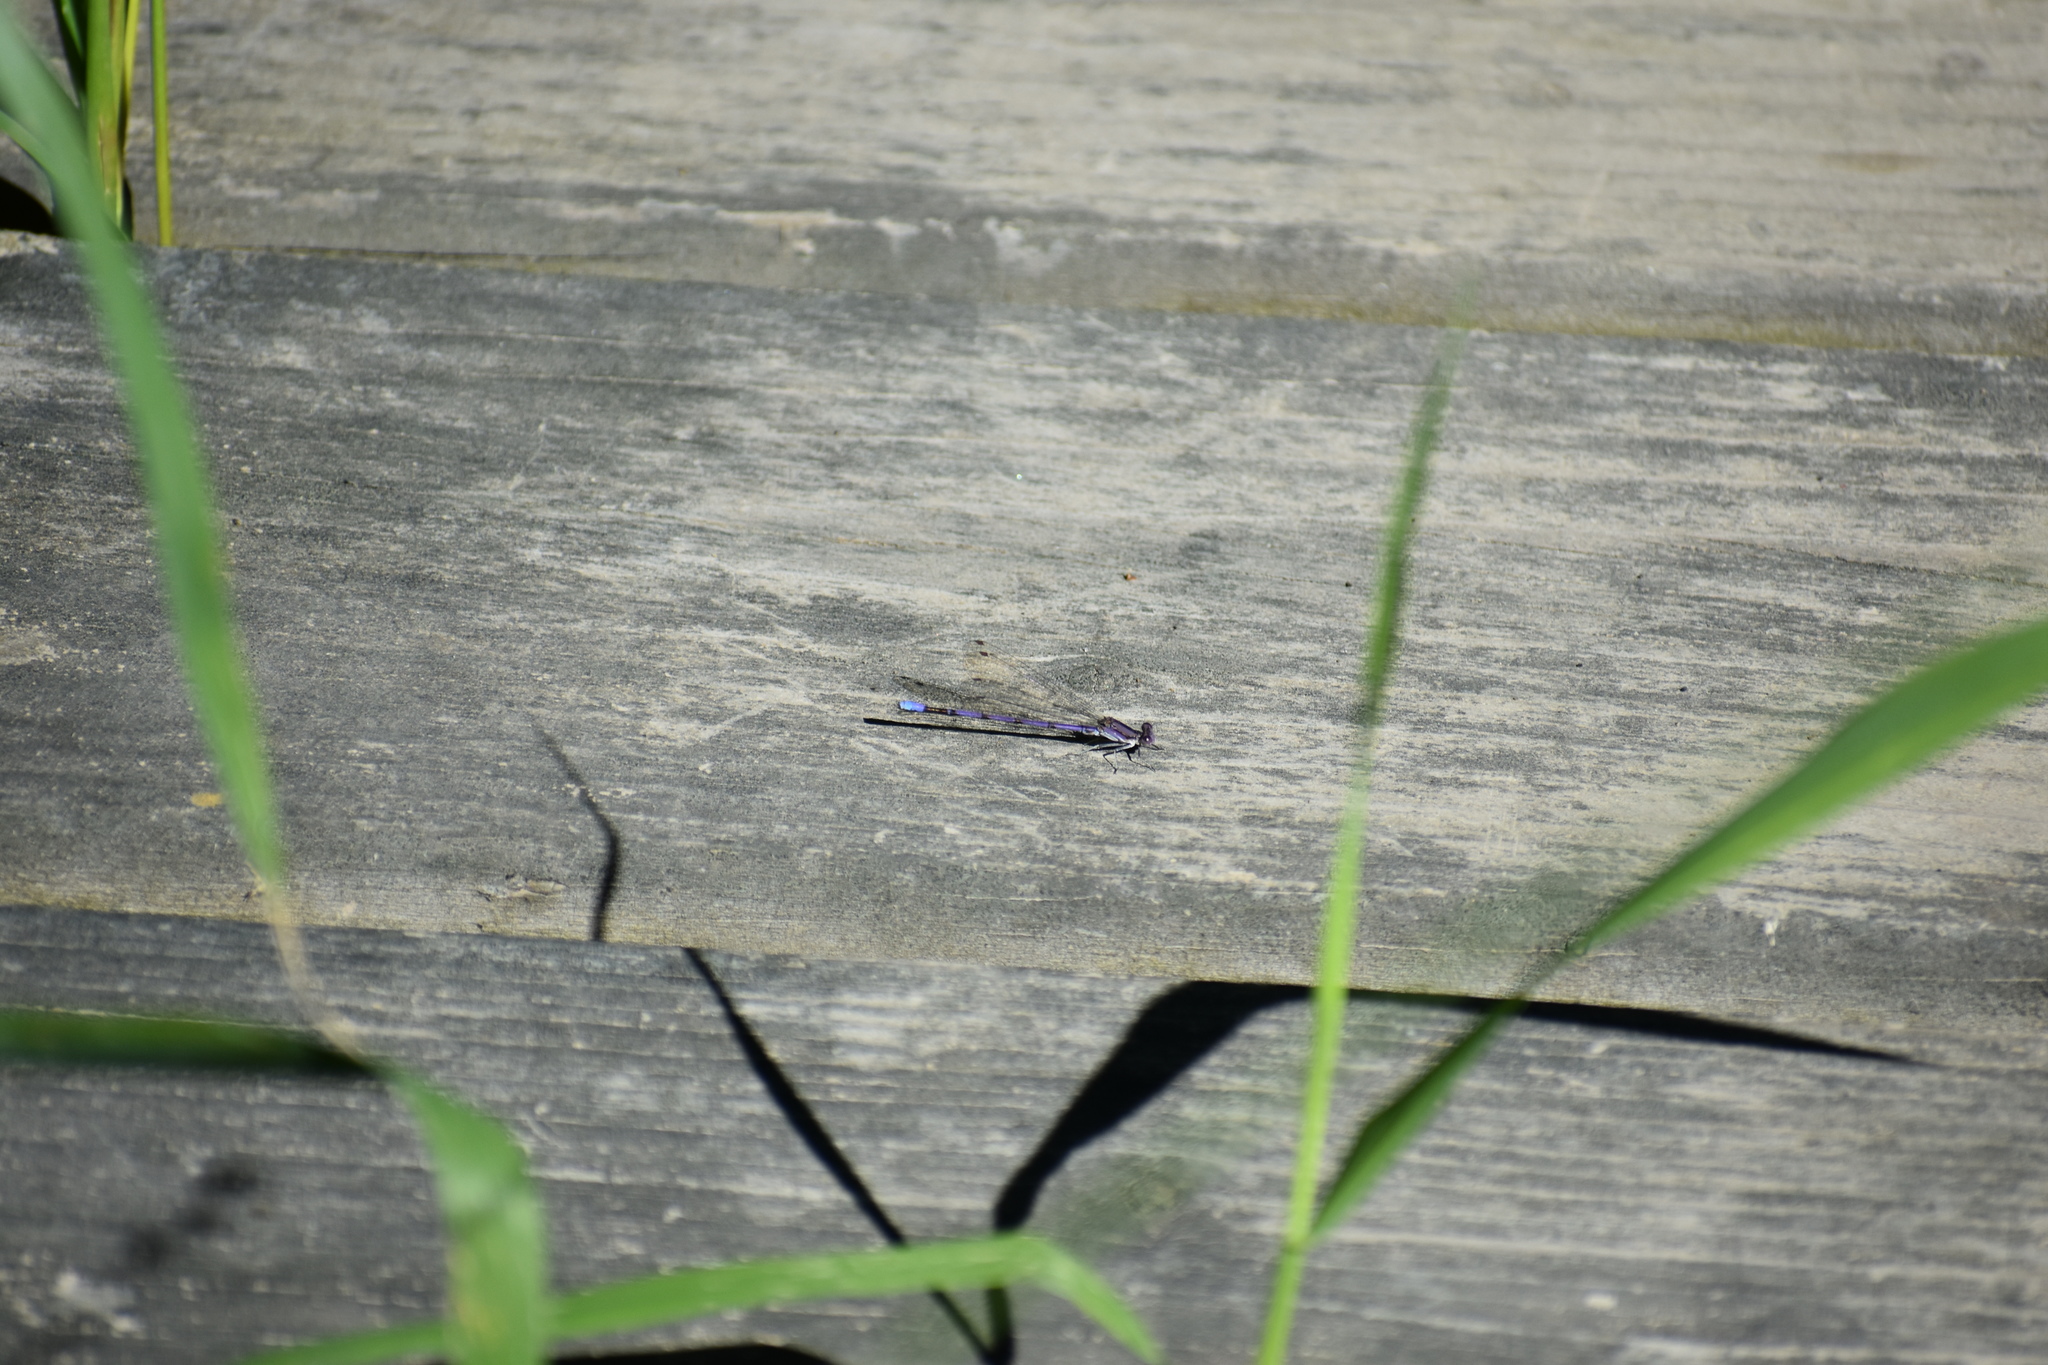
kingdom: Animalia
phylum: Arthropoda
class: Insecta
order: Odonata
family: Coenagrionidae
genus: Argia
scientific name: Argia fumipennis
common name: Variable dancer
